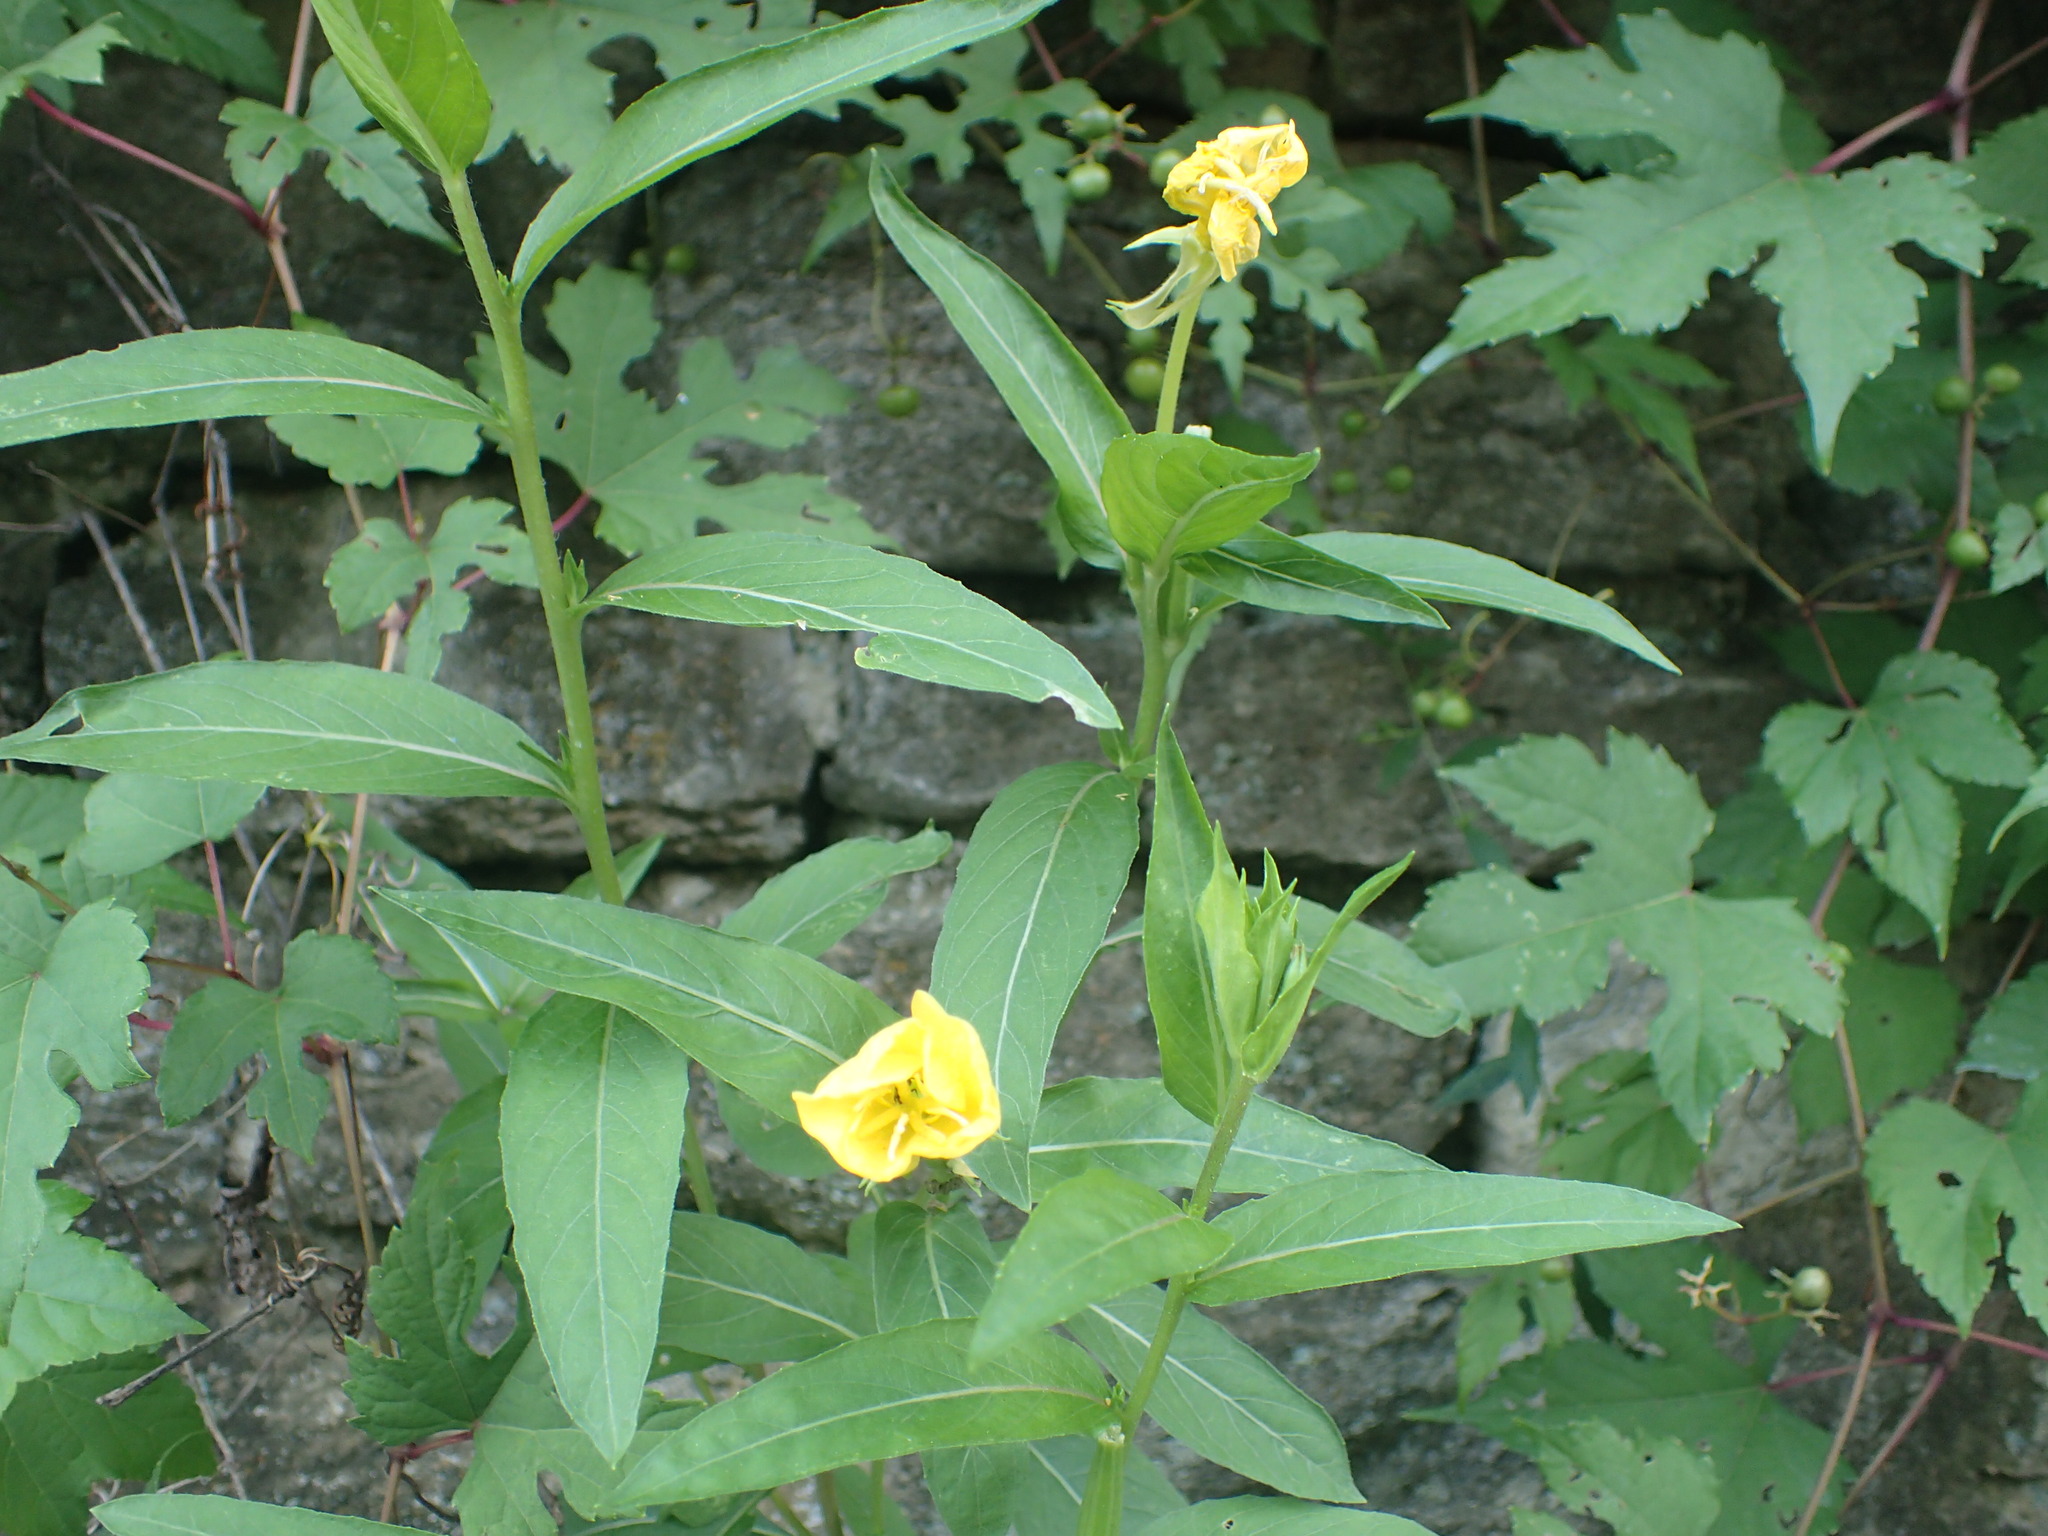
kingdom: Plantae
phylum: Tracheophyta
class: Magnoliopsida
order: Myrtales
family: Onagraceae
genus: Oenothera
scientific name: Oenothera biennis
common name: Common evening-primrose
